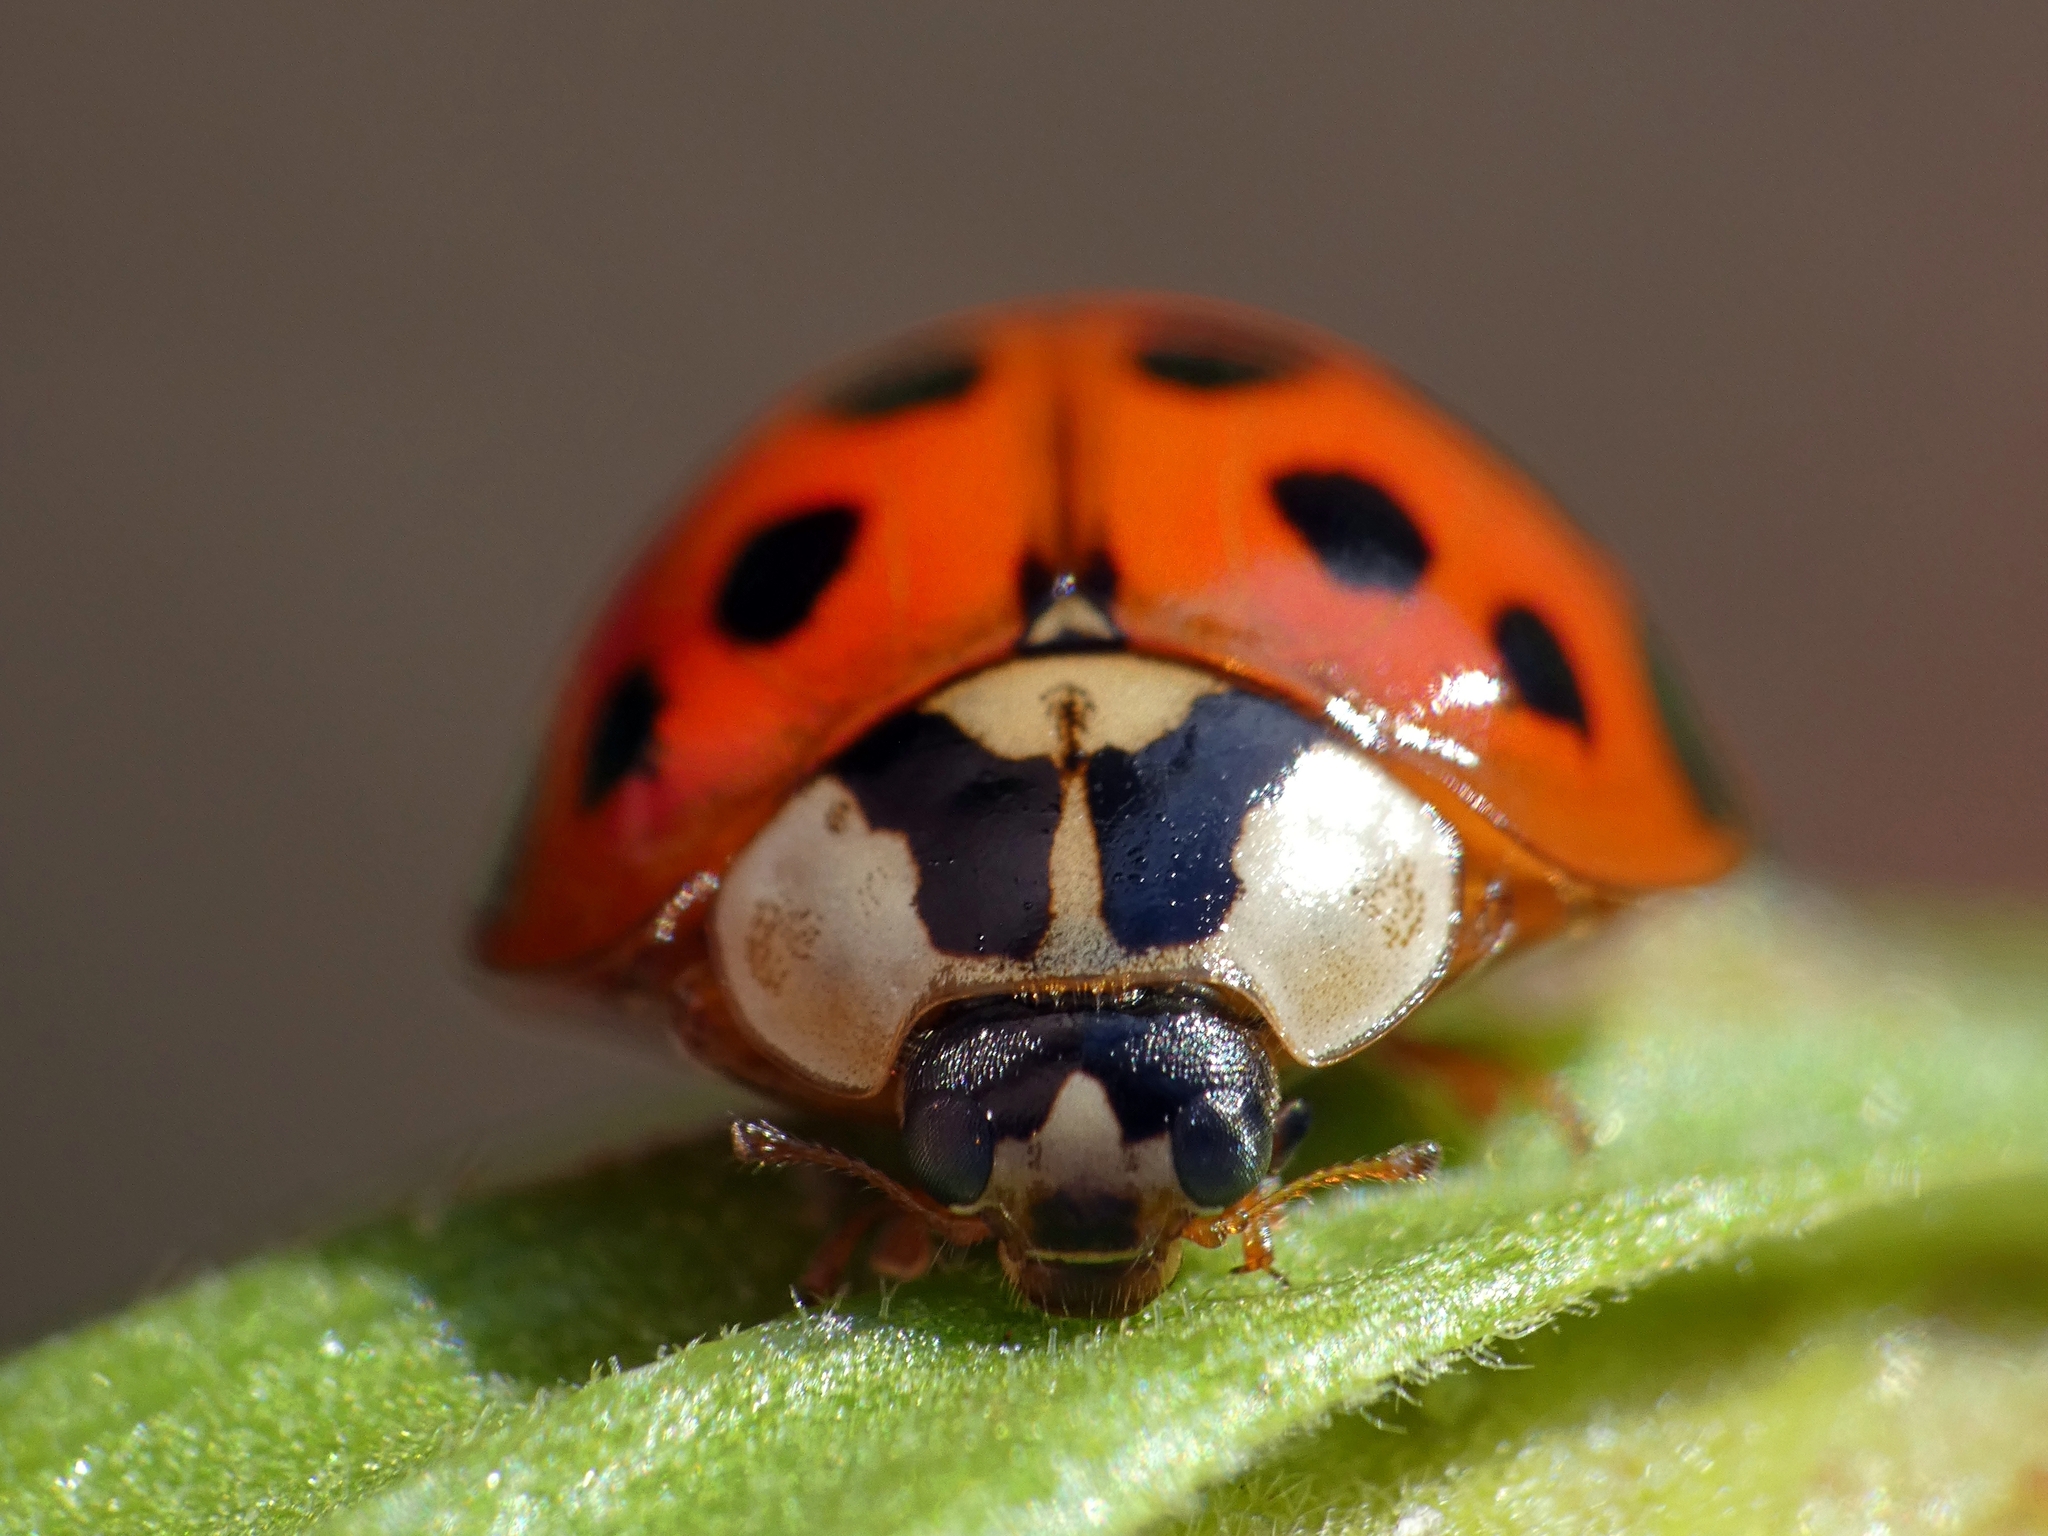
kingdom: Animalia
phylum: Arthropoda
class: Insecta
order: Coleoptera
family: Coccinellidae
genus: Harmonia
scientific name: Harmonia axyridis
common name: Harlequin ladybird
